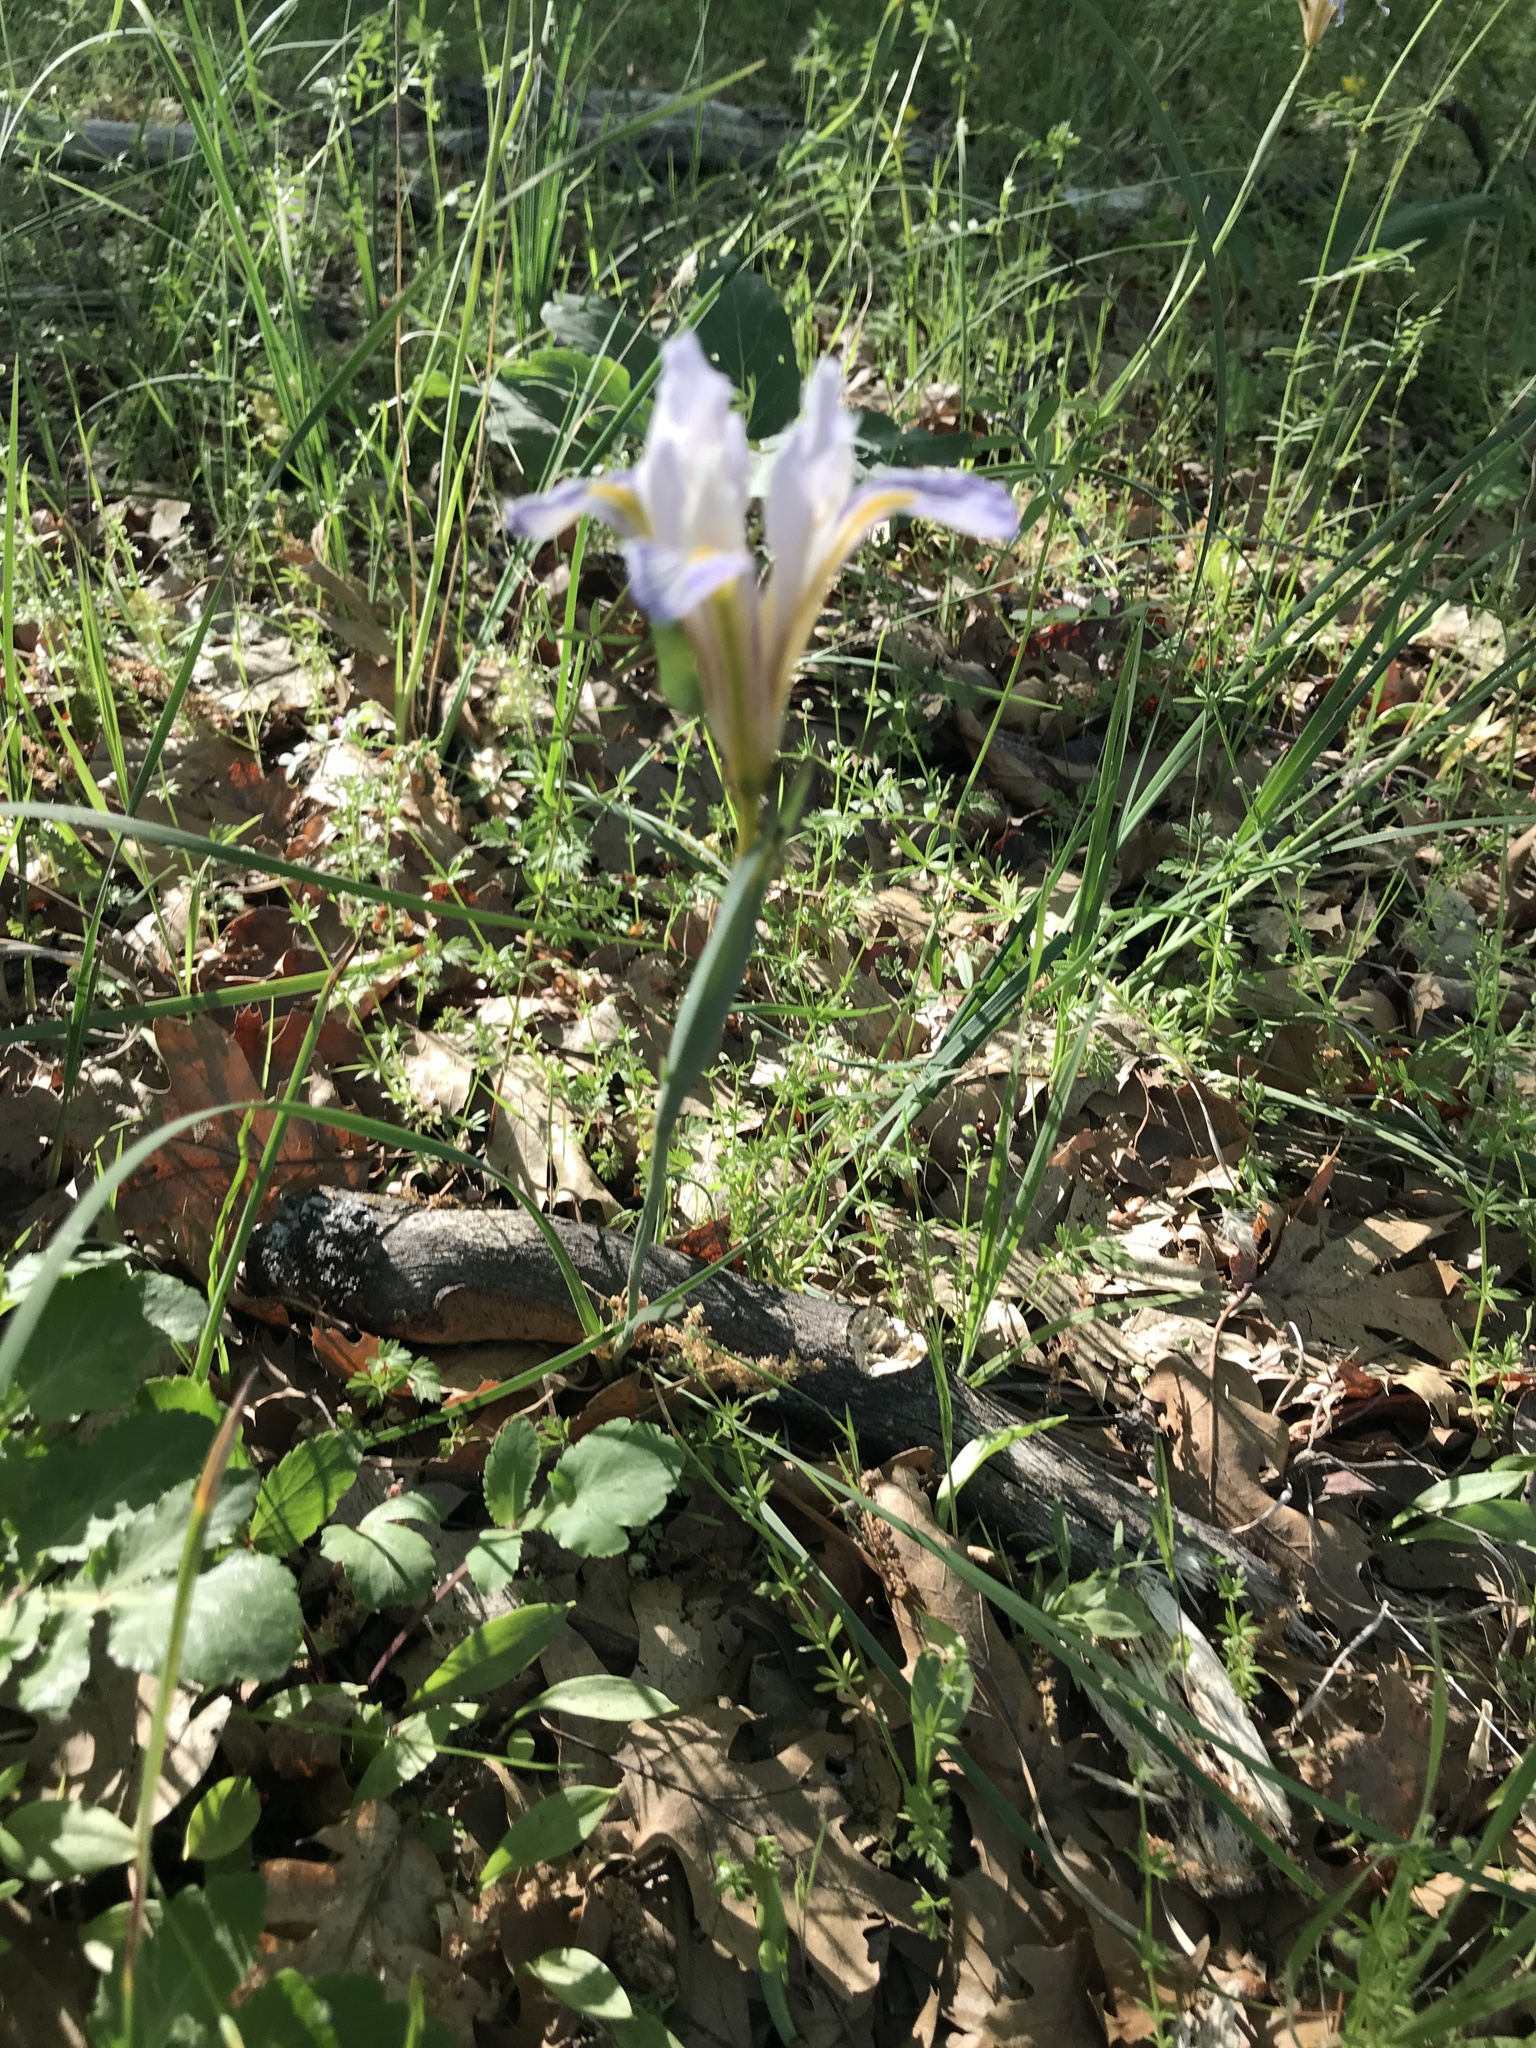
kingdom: Plantae
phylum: Tracheophyta
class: Liliopsida
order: Asparagales
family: Iridaceae
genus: Iris
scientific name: Iris macrosiphon
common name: Ground iris
